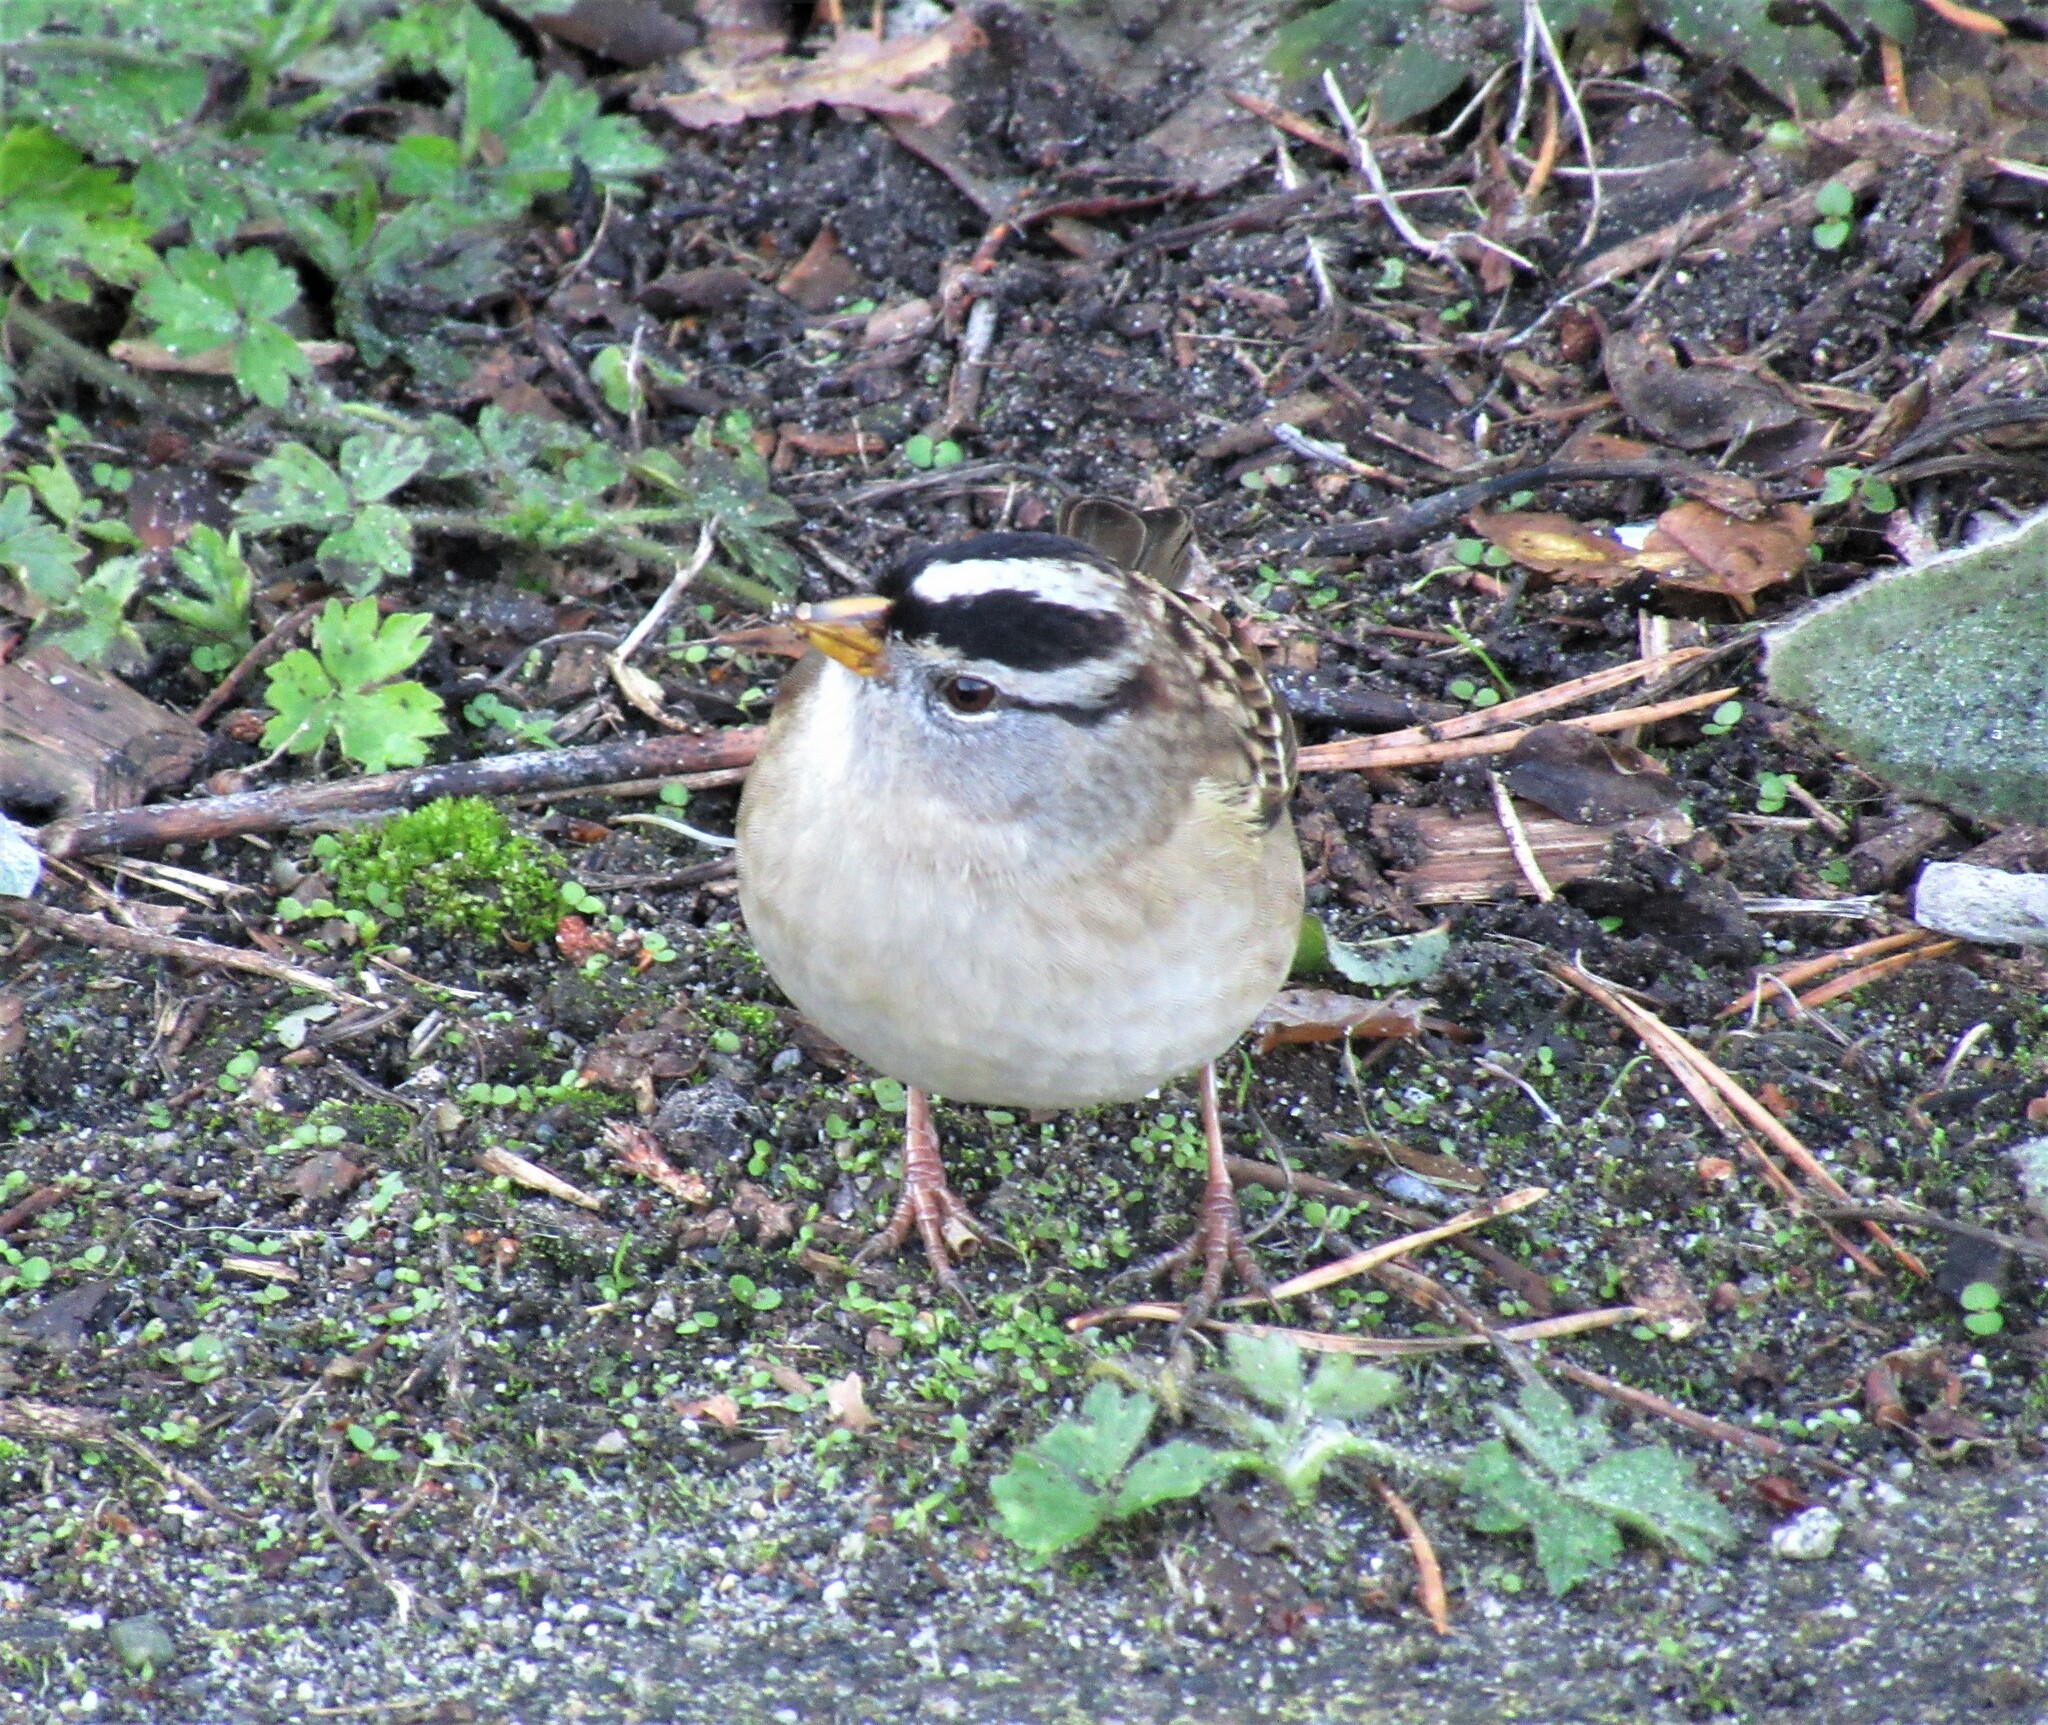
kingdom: Animalia
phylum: Chordata
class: Aves
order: Passeriformes
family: Passerellidae
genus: Zonotrichia
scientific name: Zonotrichia leucophrys
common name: White-crowned sparrow
